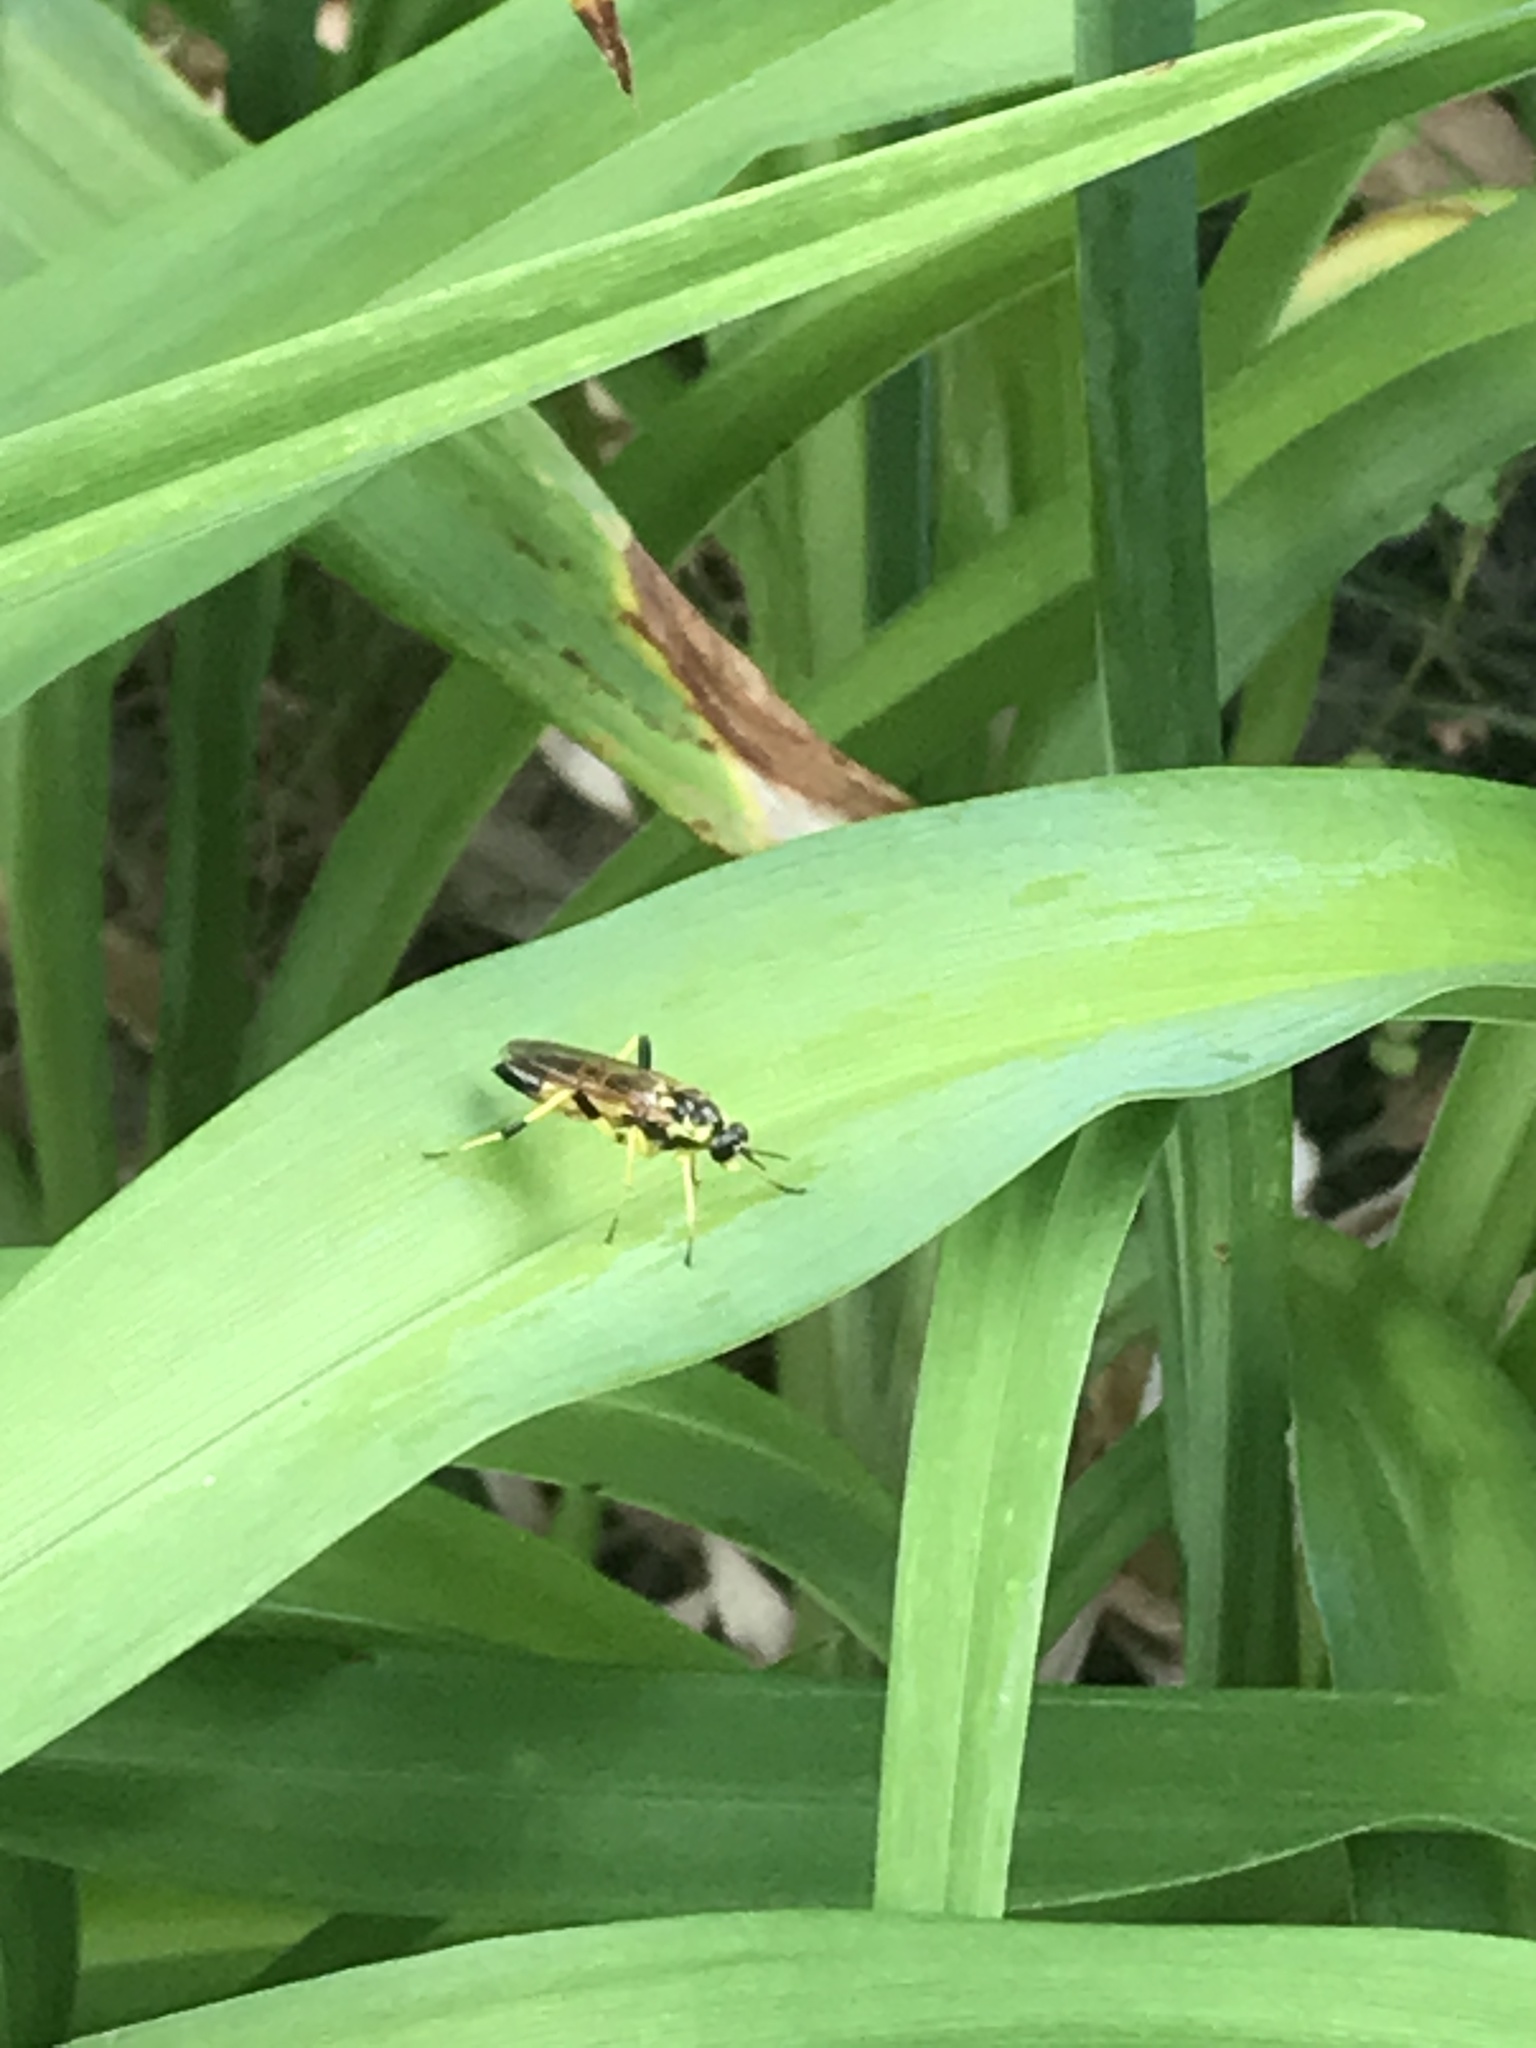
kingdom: Animalia
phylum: Arthropoda
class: Insecta
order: Diptera
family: Xylomyidae
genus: Xylomya
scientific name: Xylomya terminalis
